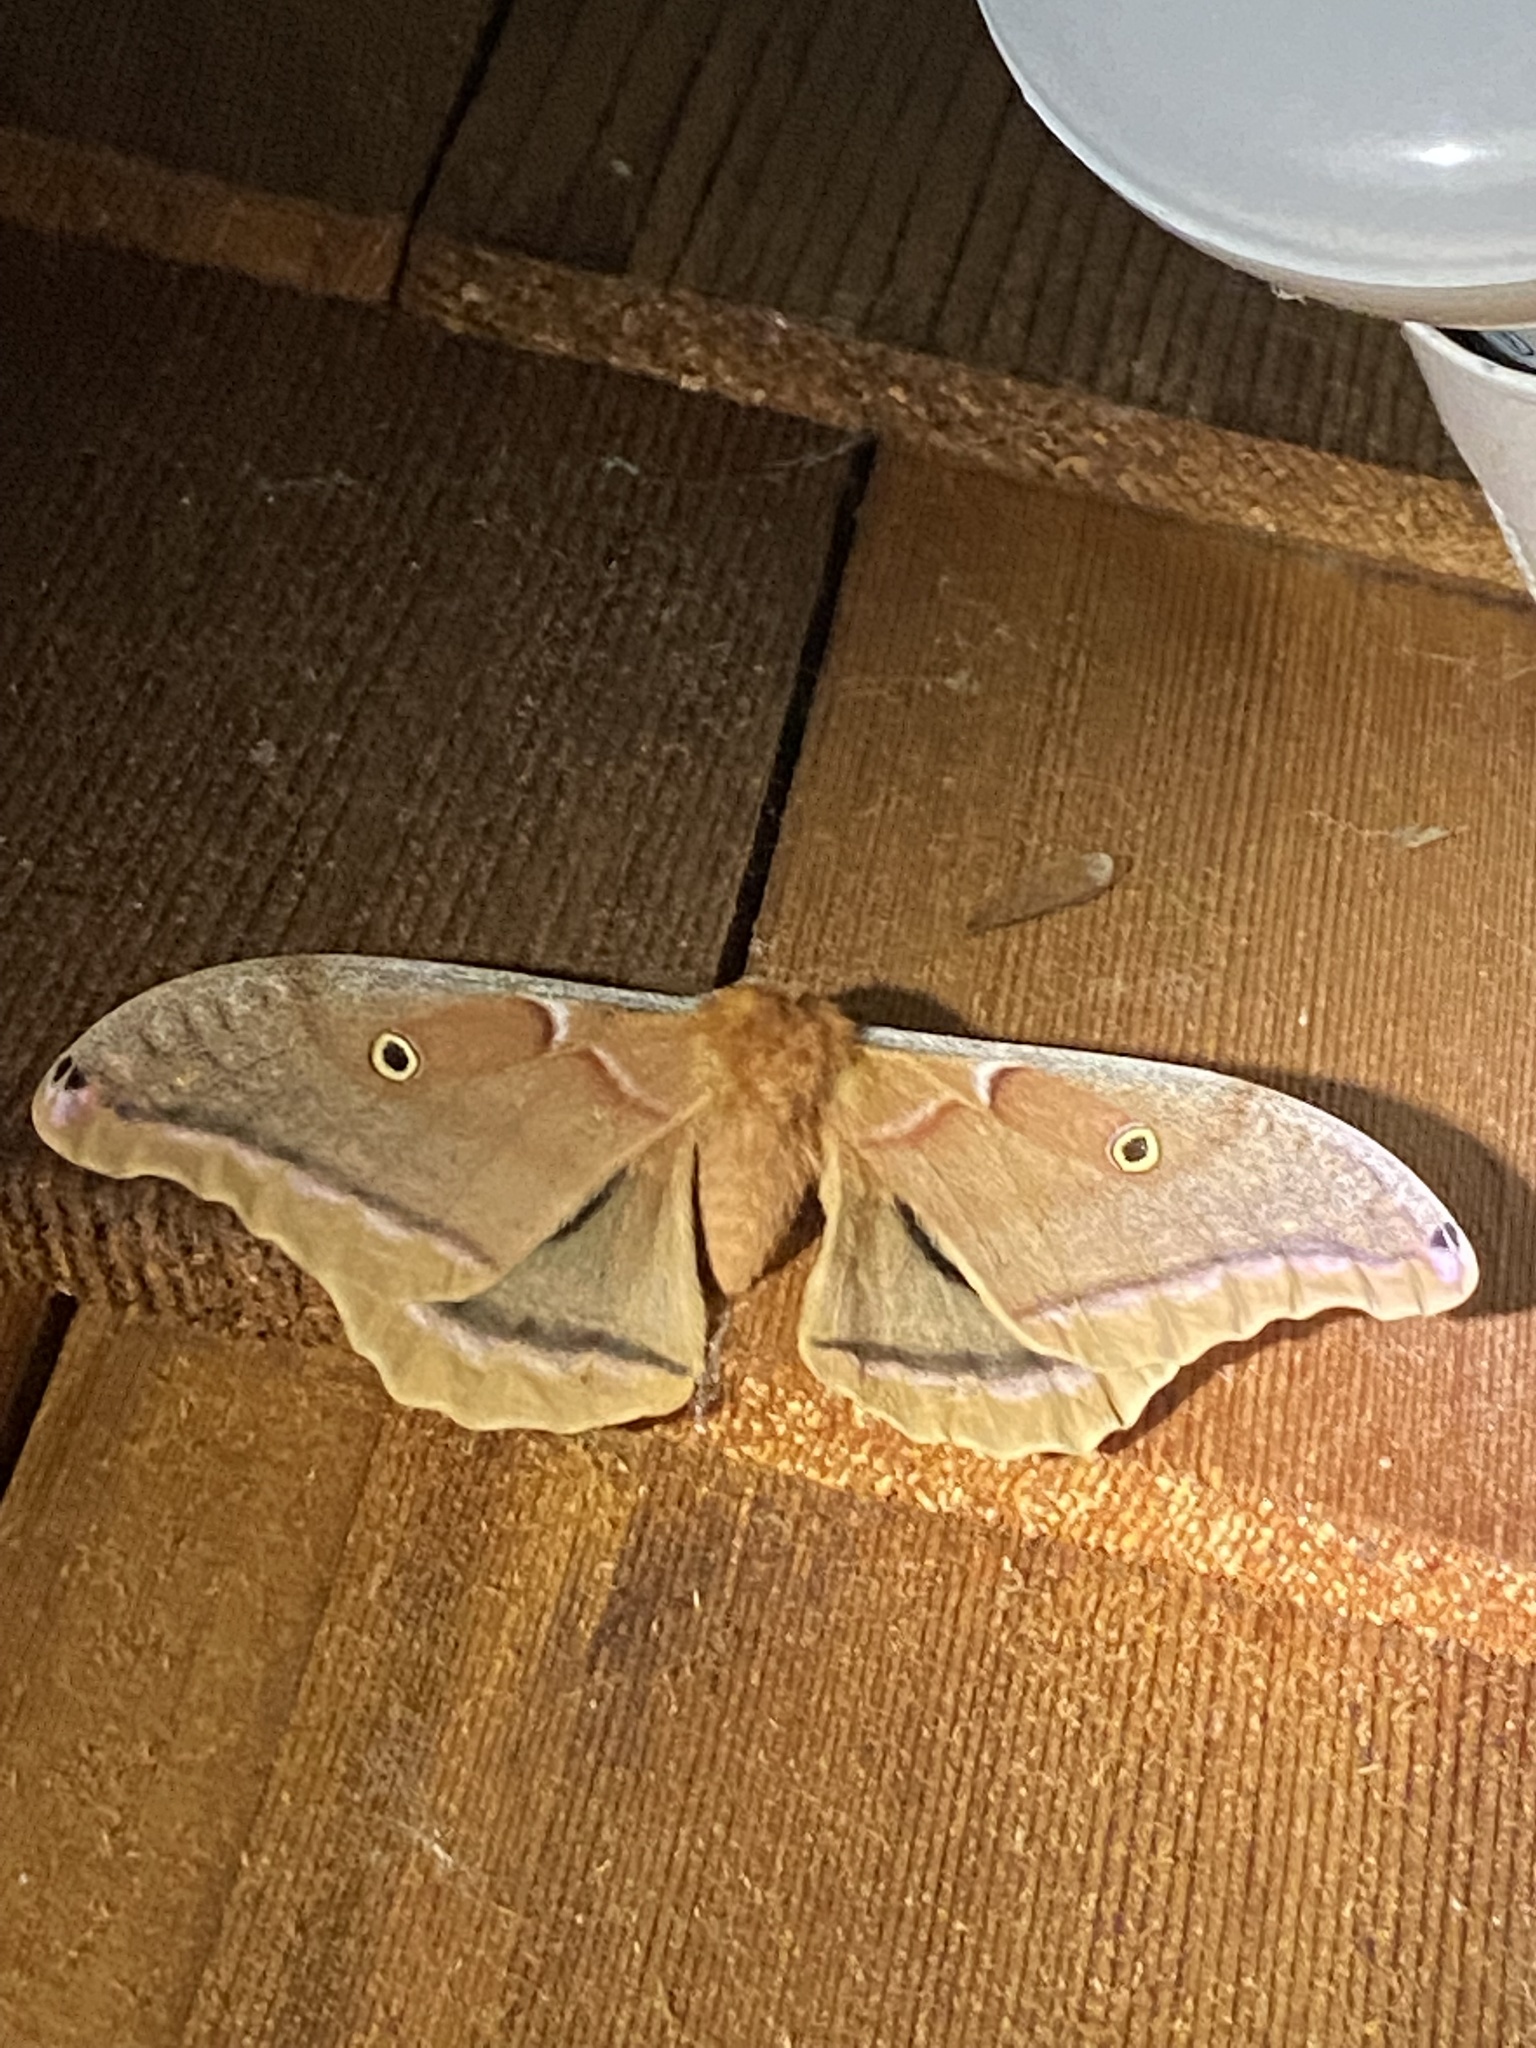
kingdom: Animalia
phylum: Arthropoda
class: Insecta
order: Lepidoptera
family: Saturniidae
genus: Antheraea
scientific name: Antheraea polyphemus
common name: Polyphemus moth
